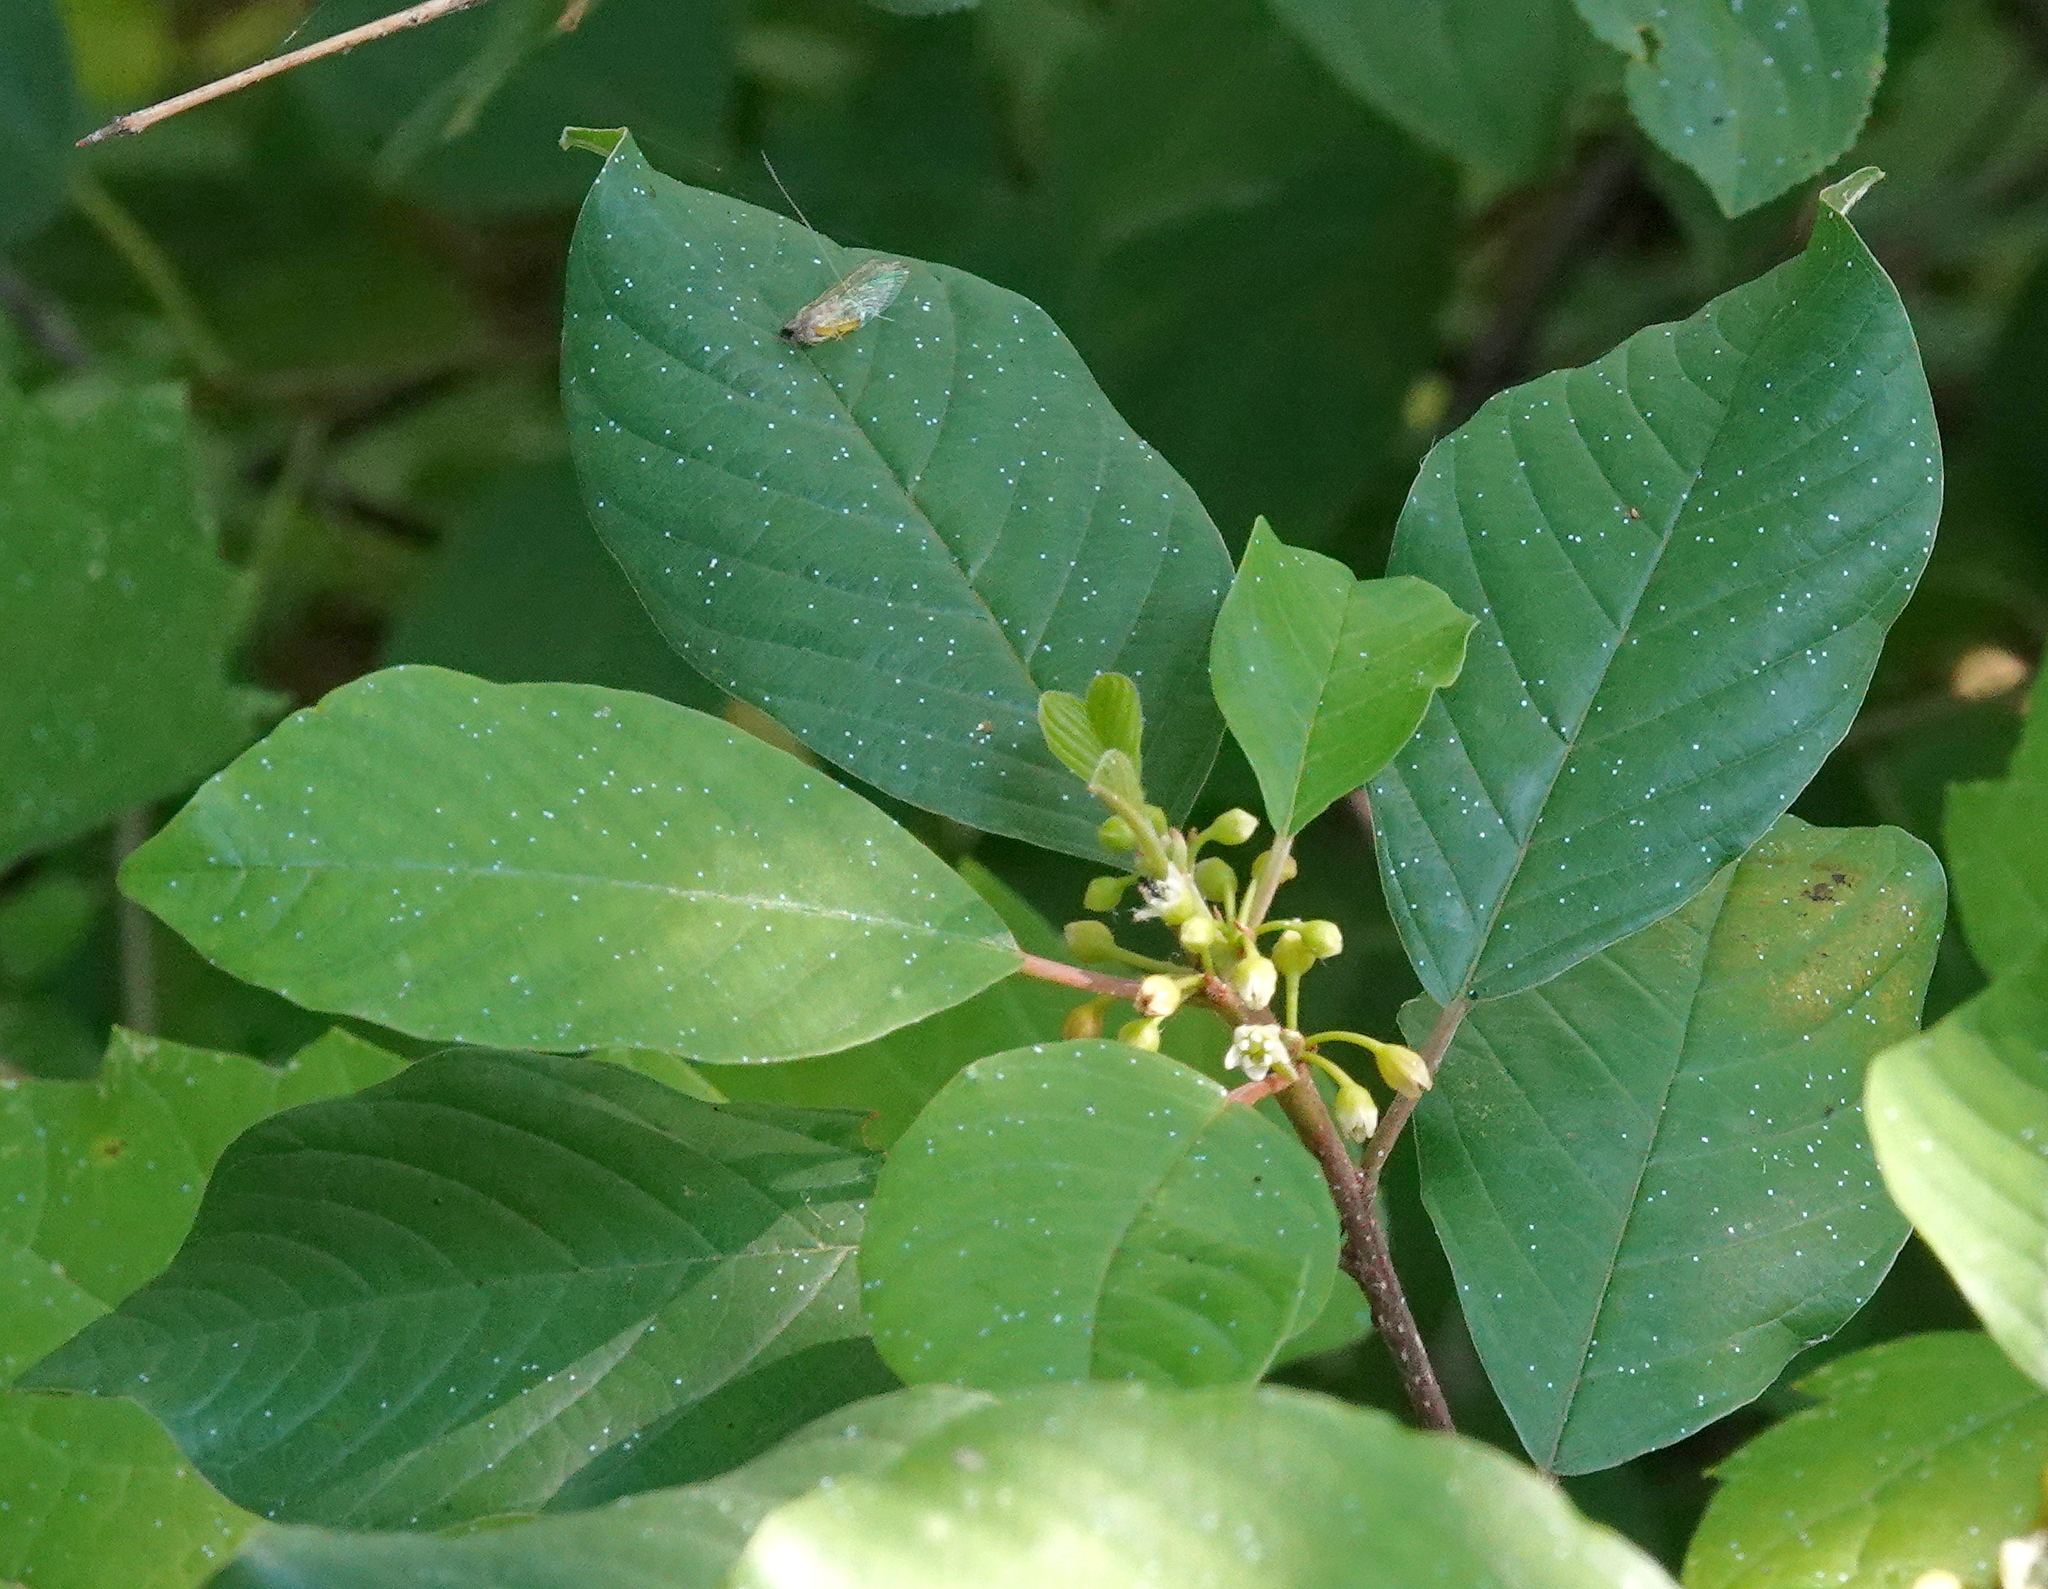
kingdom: Plantae
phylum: Tracheophyta
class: Magnoliopsida
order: Rosales
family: Rhamnaceae
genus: Frangula
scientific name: Frangula alnus
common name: Alder buckthorn
